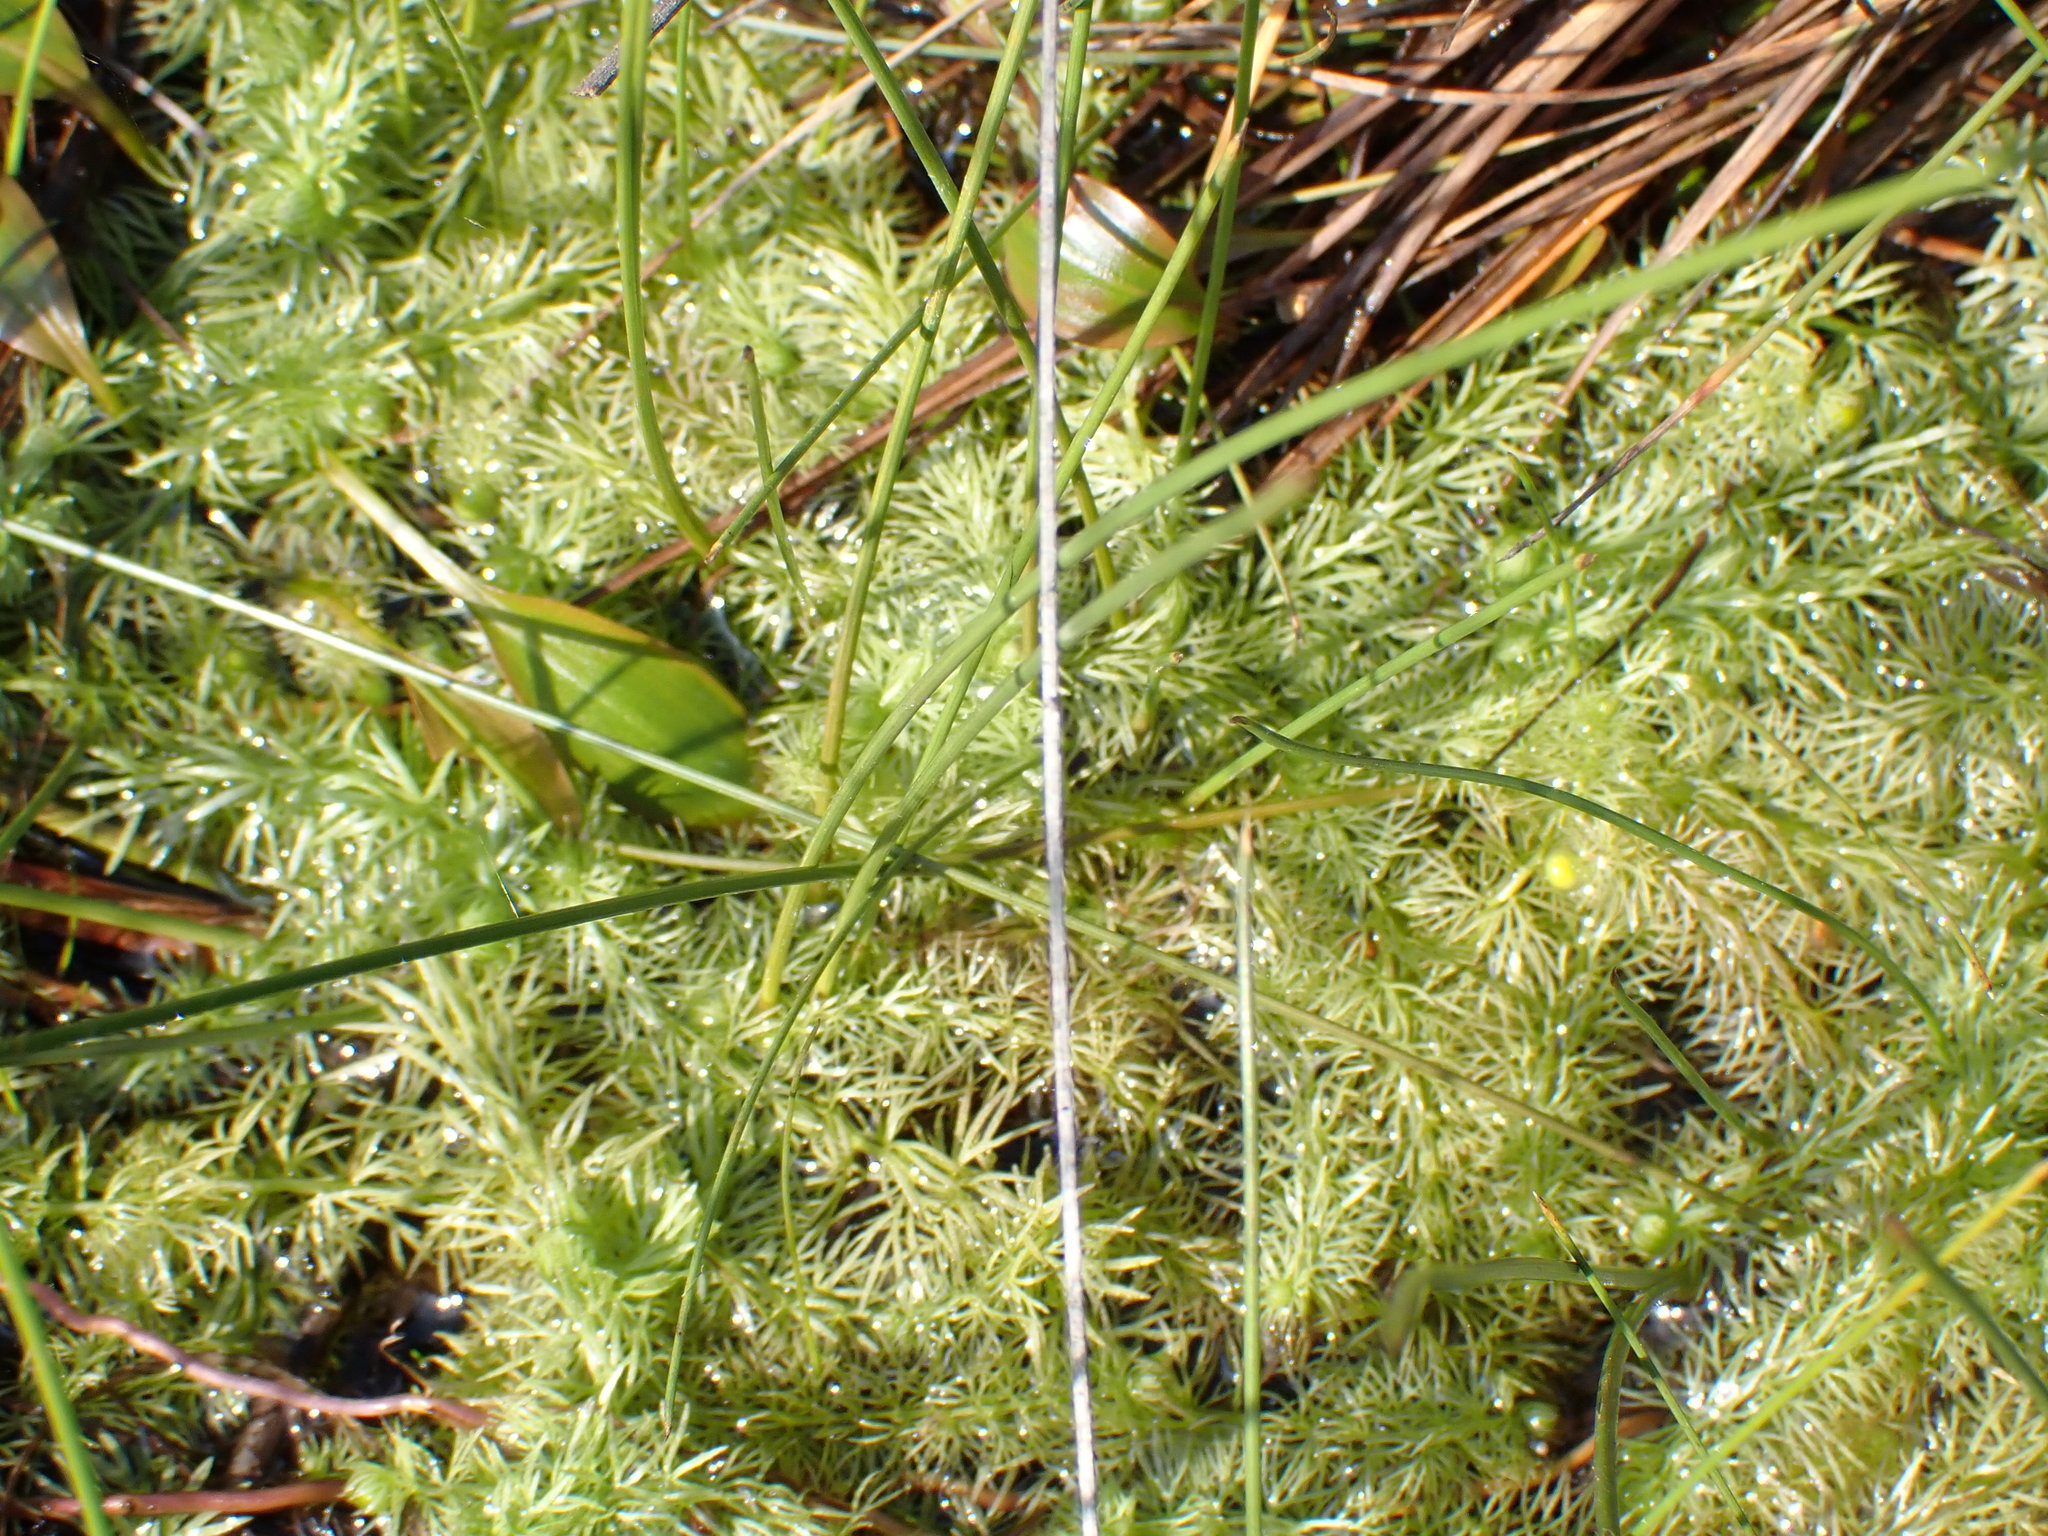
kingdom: Plantae
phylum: Tracheophyta
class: Magnoliopsida
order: Lamiales
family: Lentibulariaceae
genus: Utricularia
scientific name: Utricularia intermedia
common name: Intermediate bladderwort
